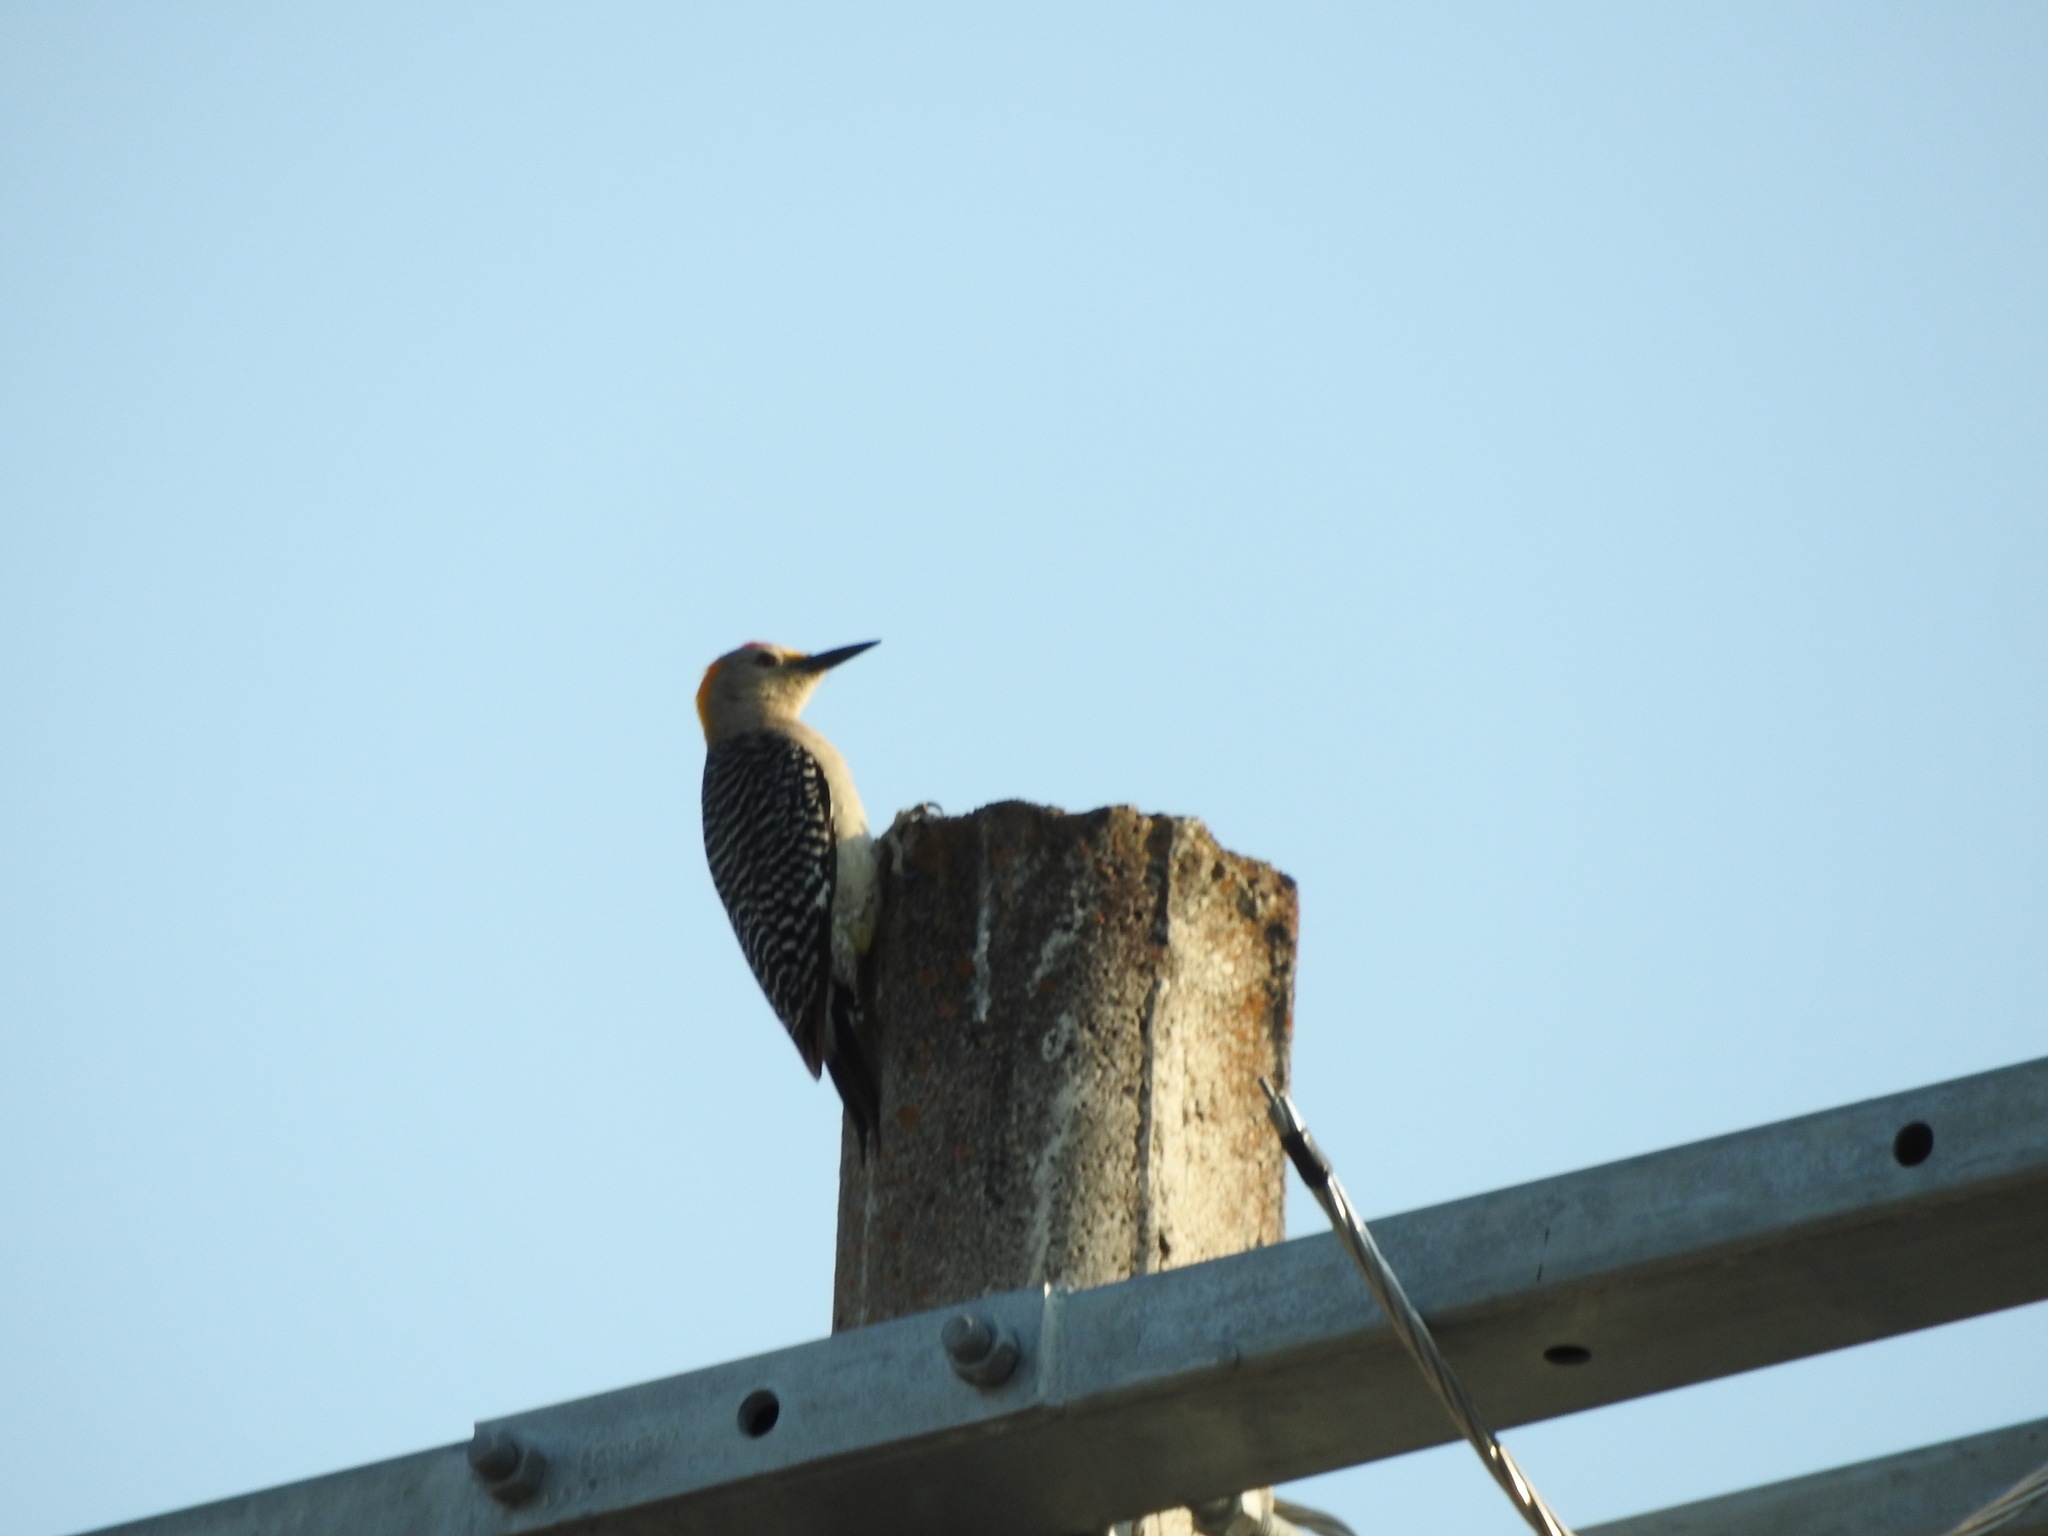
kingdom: Animalia
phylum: Chordata
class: Aves
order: Piciformes
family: Picidae
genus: Melanerpes
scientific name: Melanerpes aurifrons
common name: Golden-fronted woodpecker
